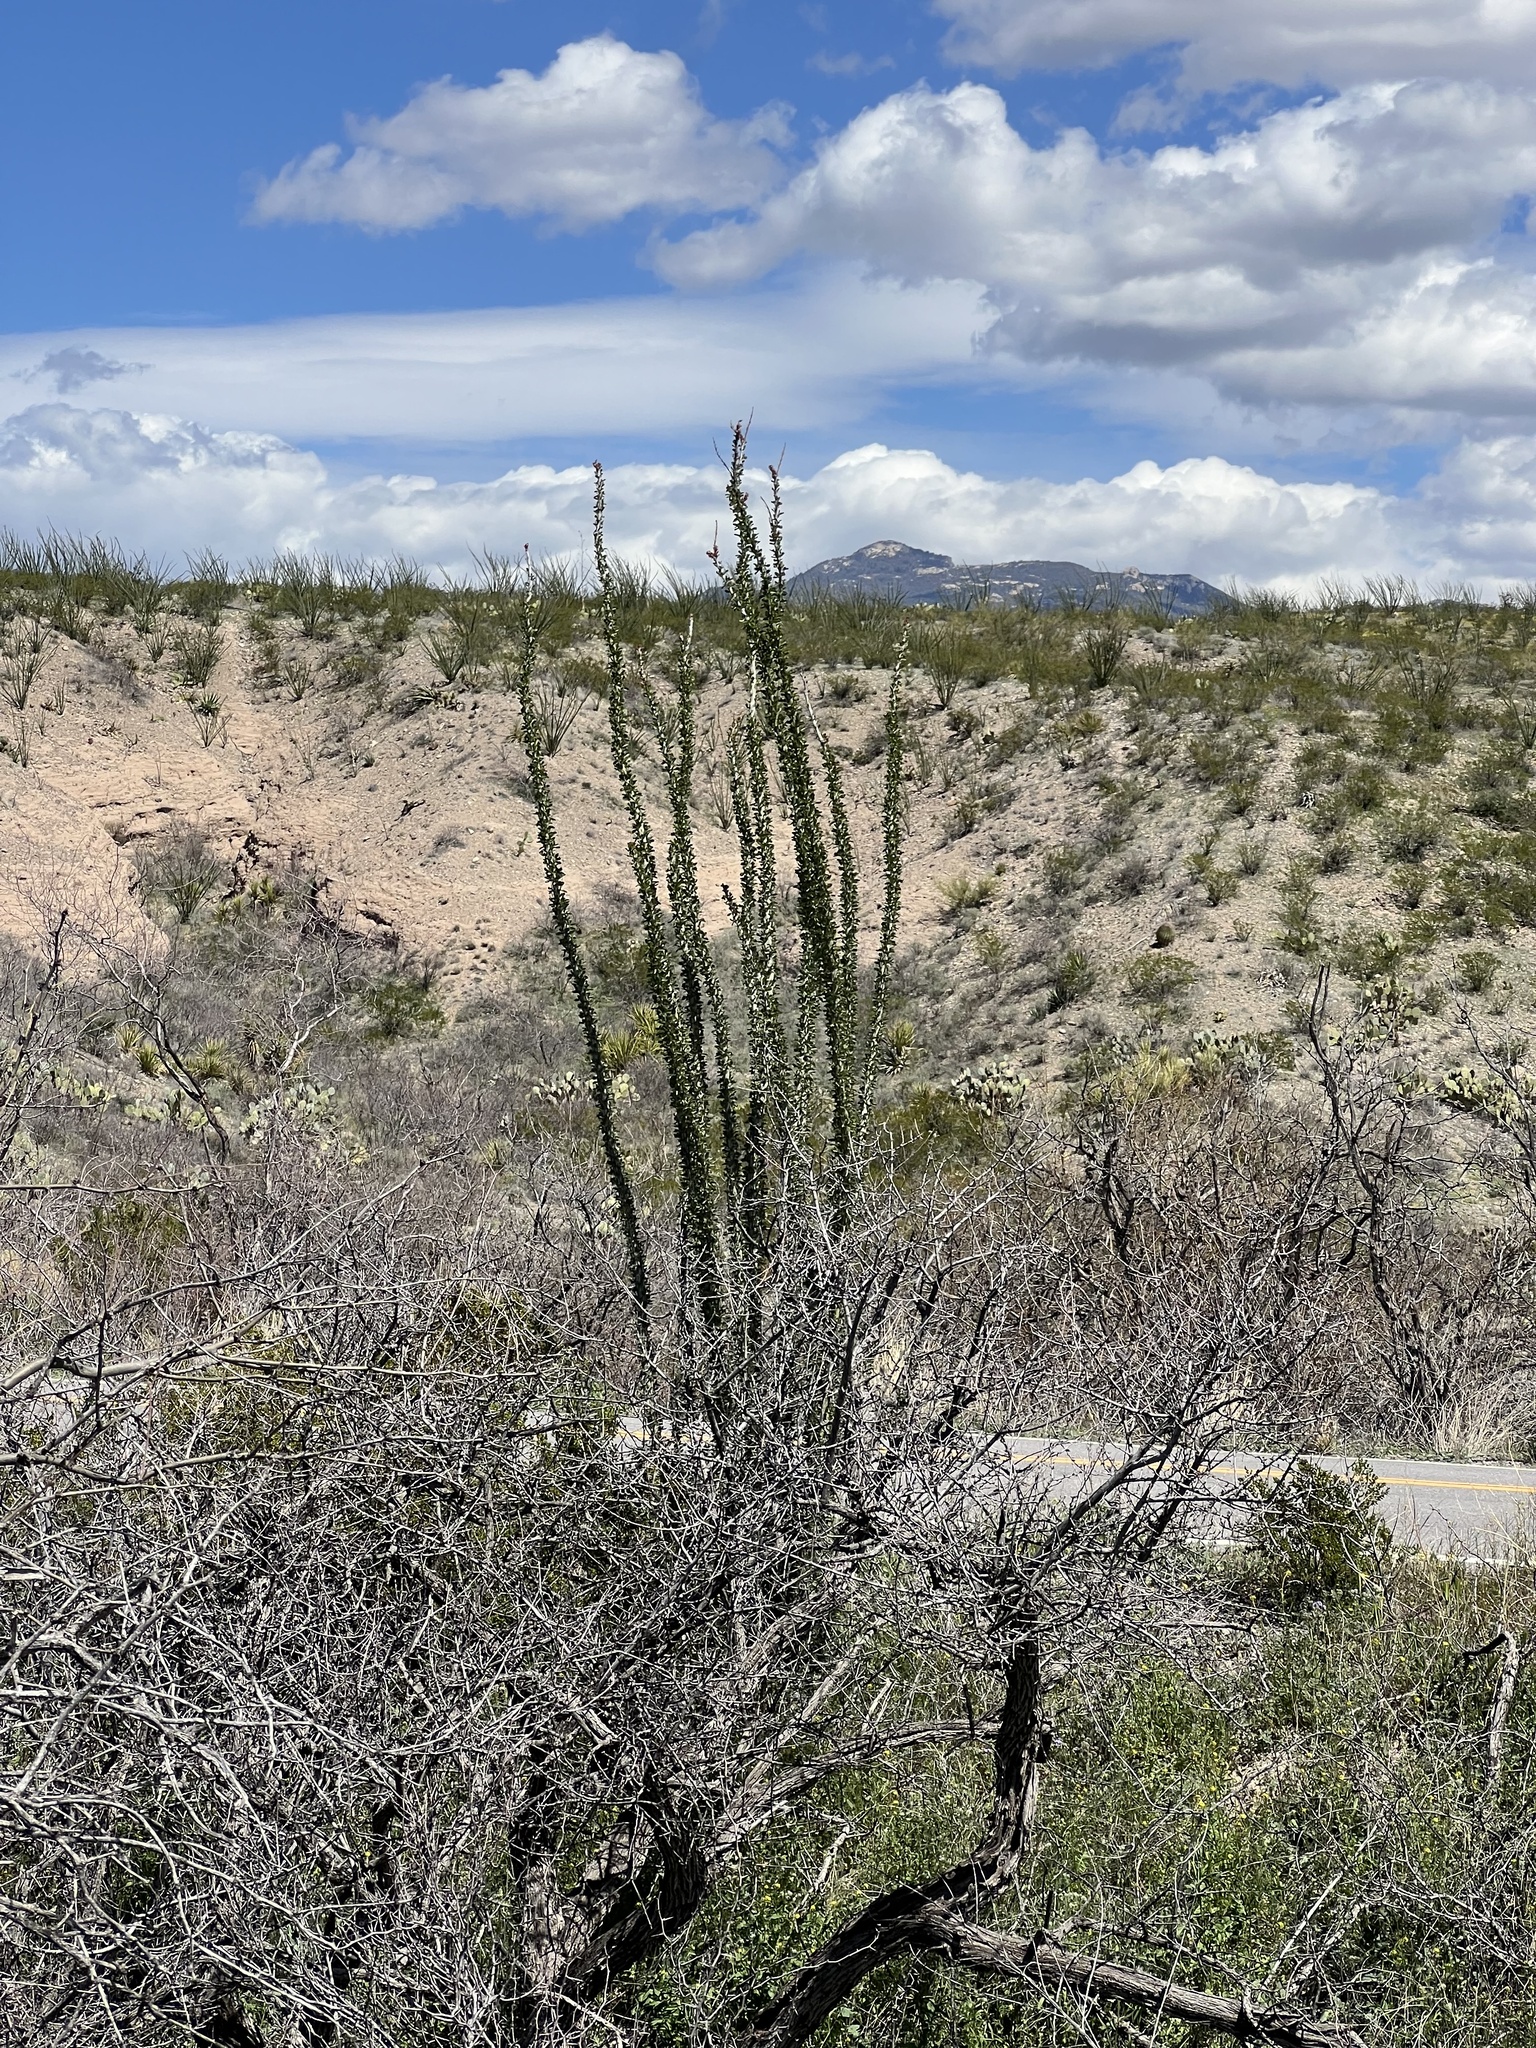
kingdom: Plantae
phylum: Tracheophyta
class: Magnoliopsida
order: Ericales
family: Fouquieriaceae
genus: Fouquieria
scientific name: Fouquieria splendens
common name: Vine-cactus
